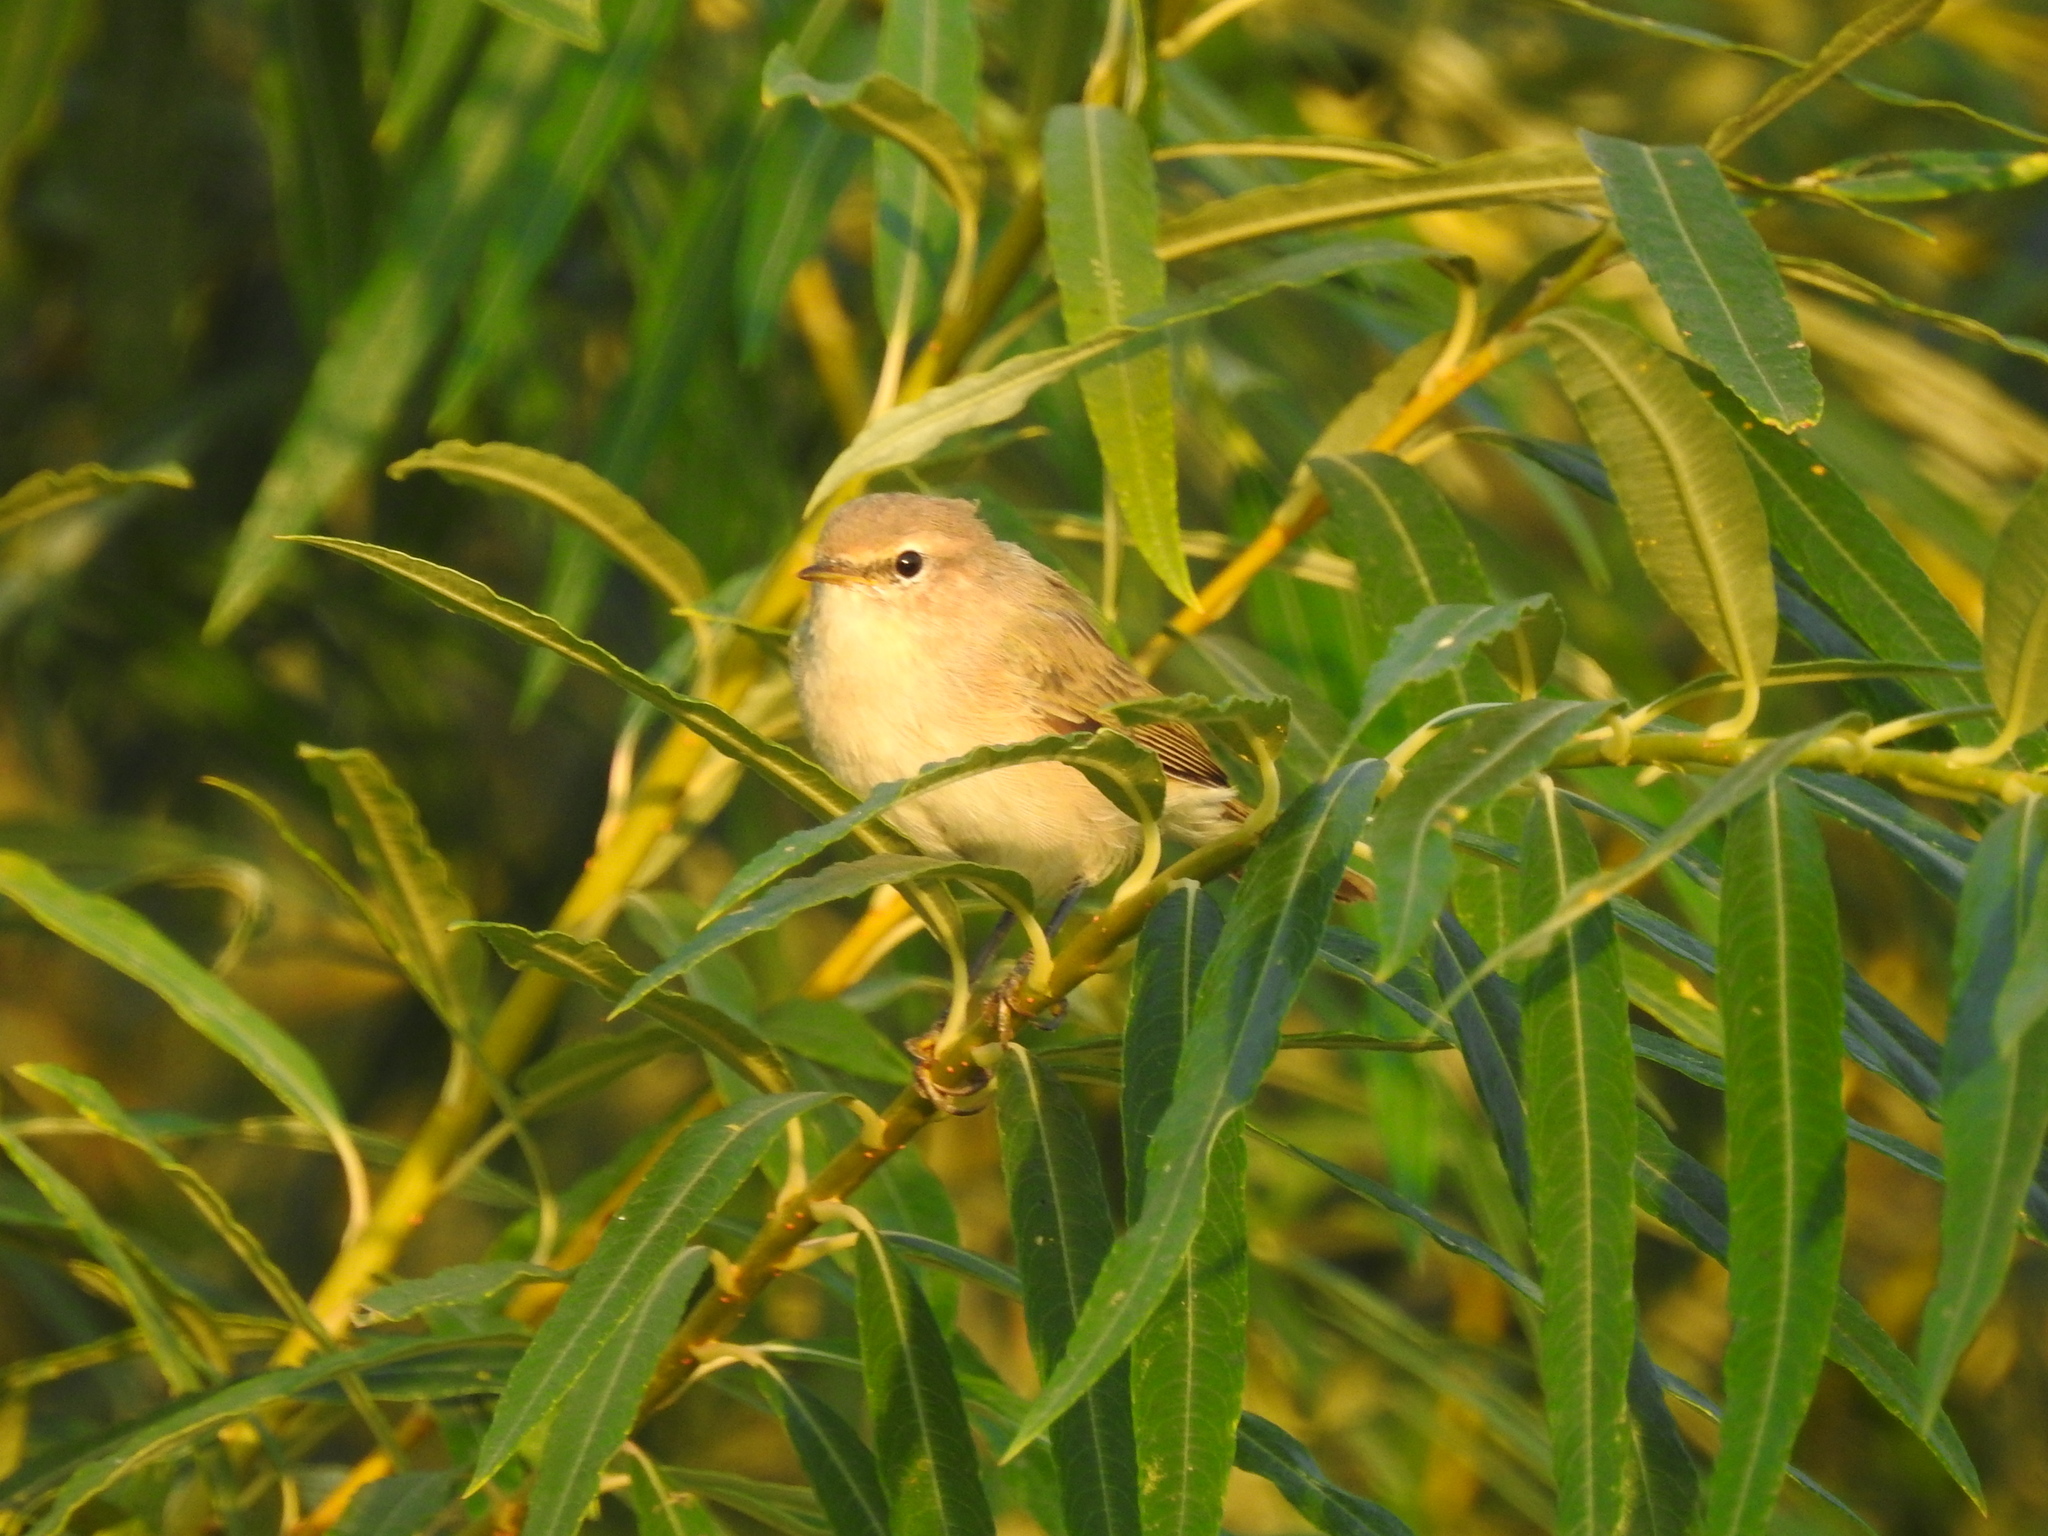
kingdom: Animalia
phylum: Chordata
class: Aves
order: Passeriformes
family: Phylloscopidae
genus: Phylloscopus
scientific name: Phylloscopus collybita
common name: Common chiffchaff
